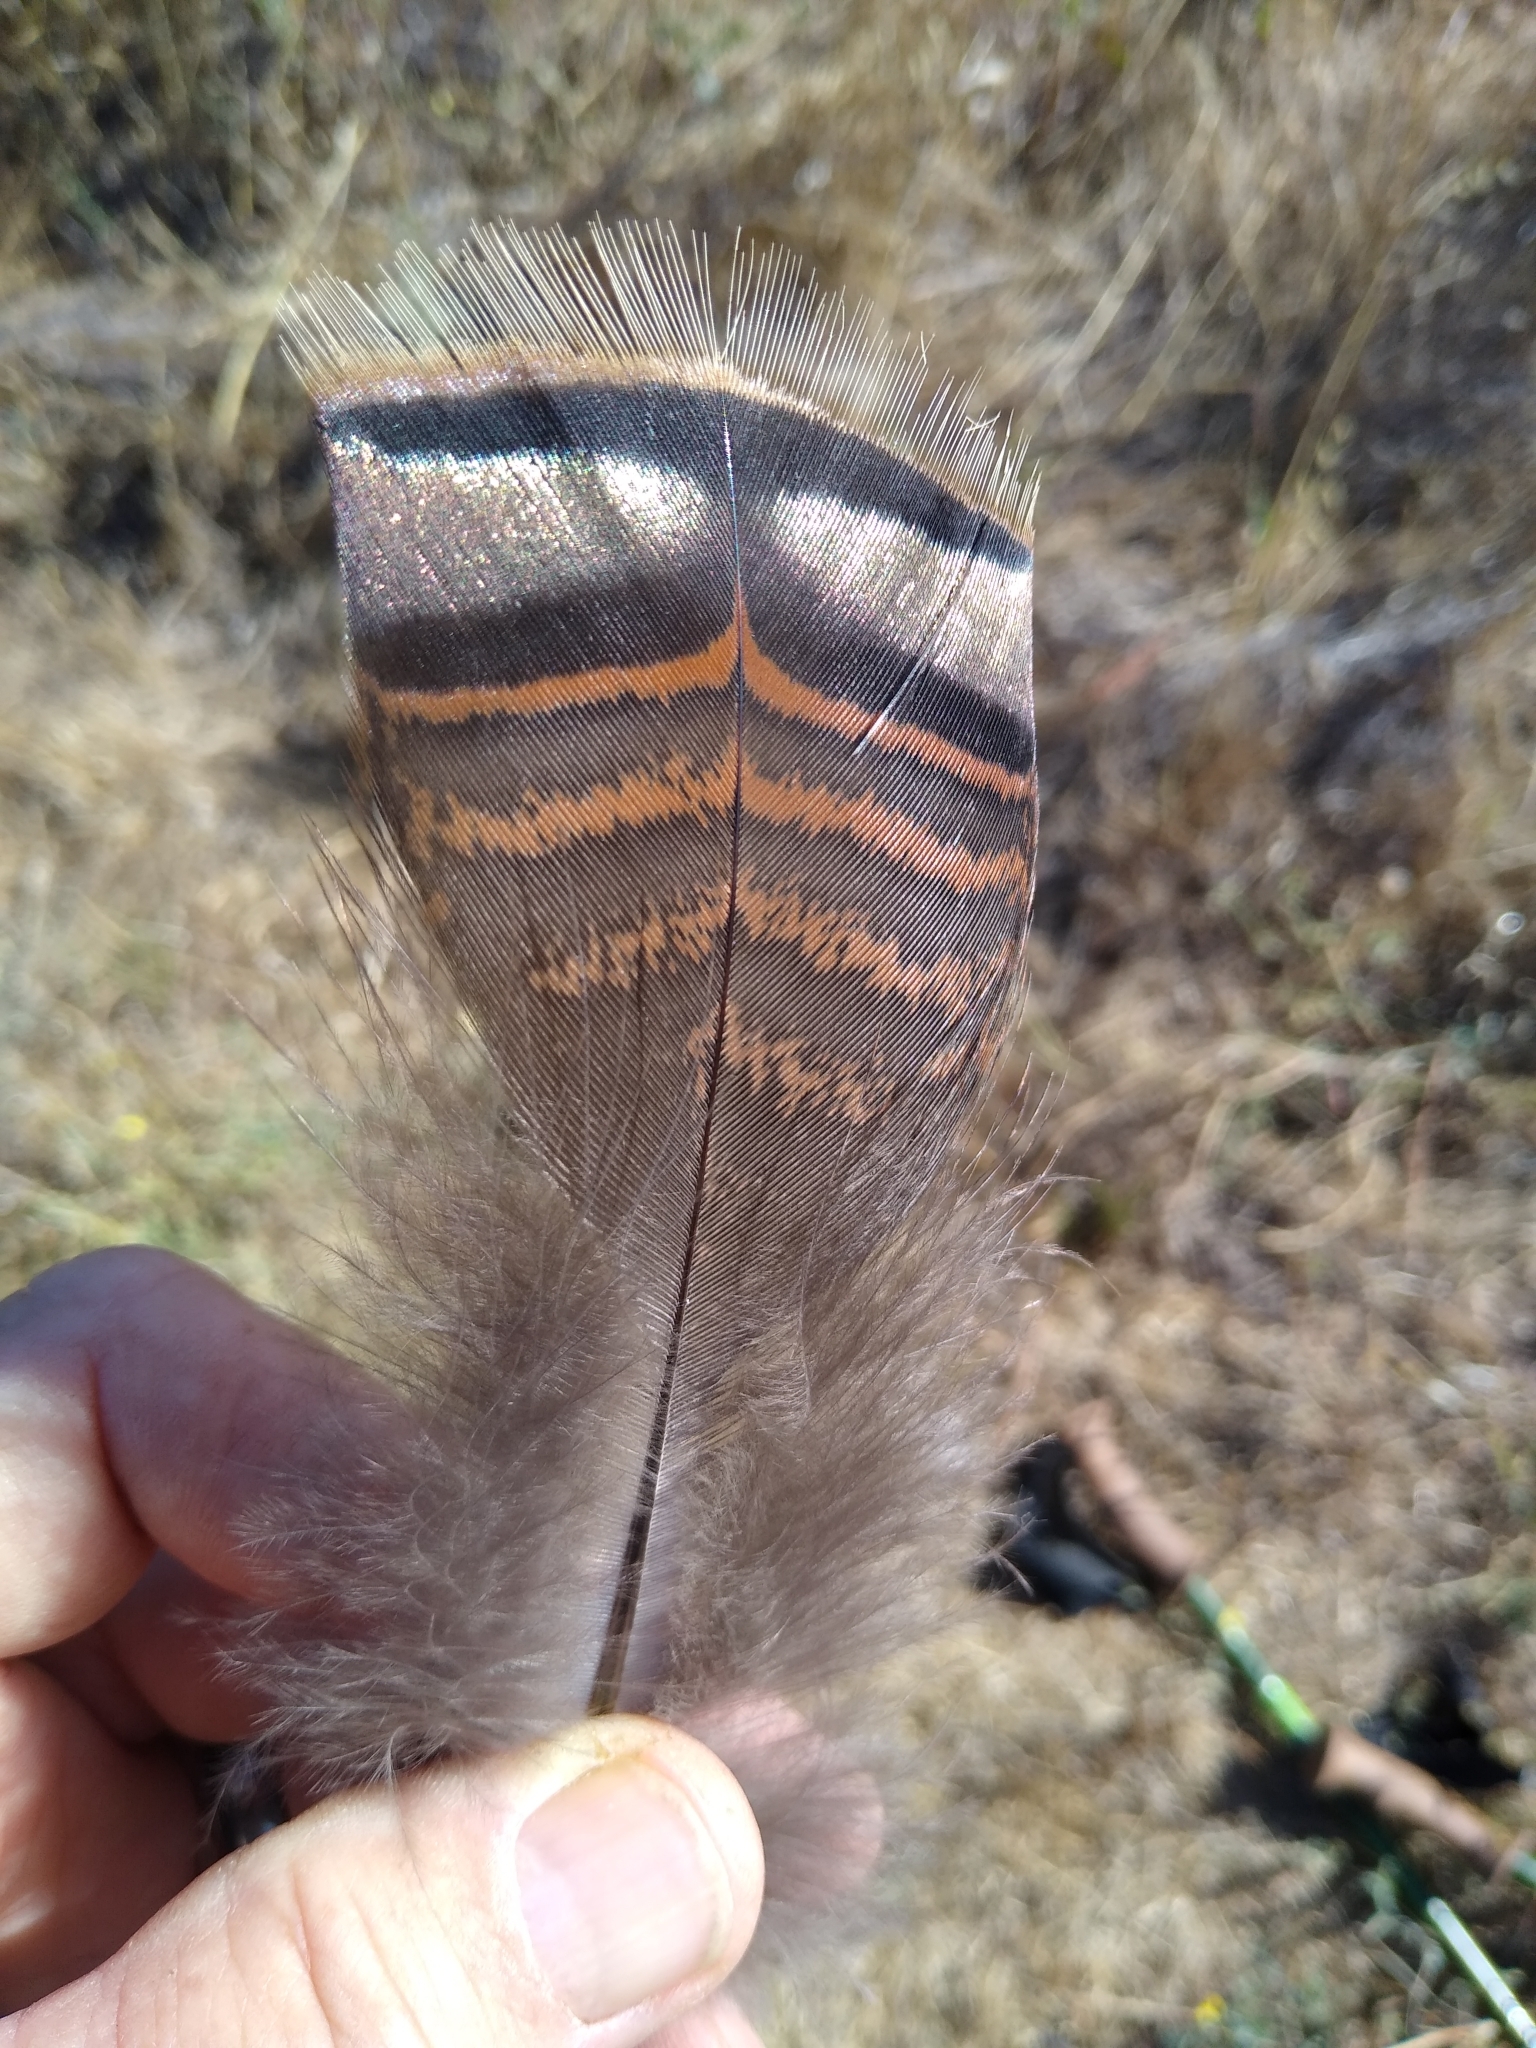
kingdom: Animalia
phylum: Chordata
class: Aves
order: Galliformes
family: Phasianidae
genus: Meleagris
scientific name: Meleagris gallopavo
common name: Wild turkey
